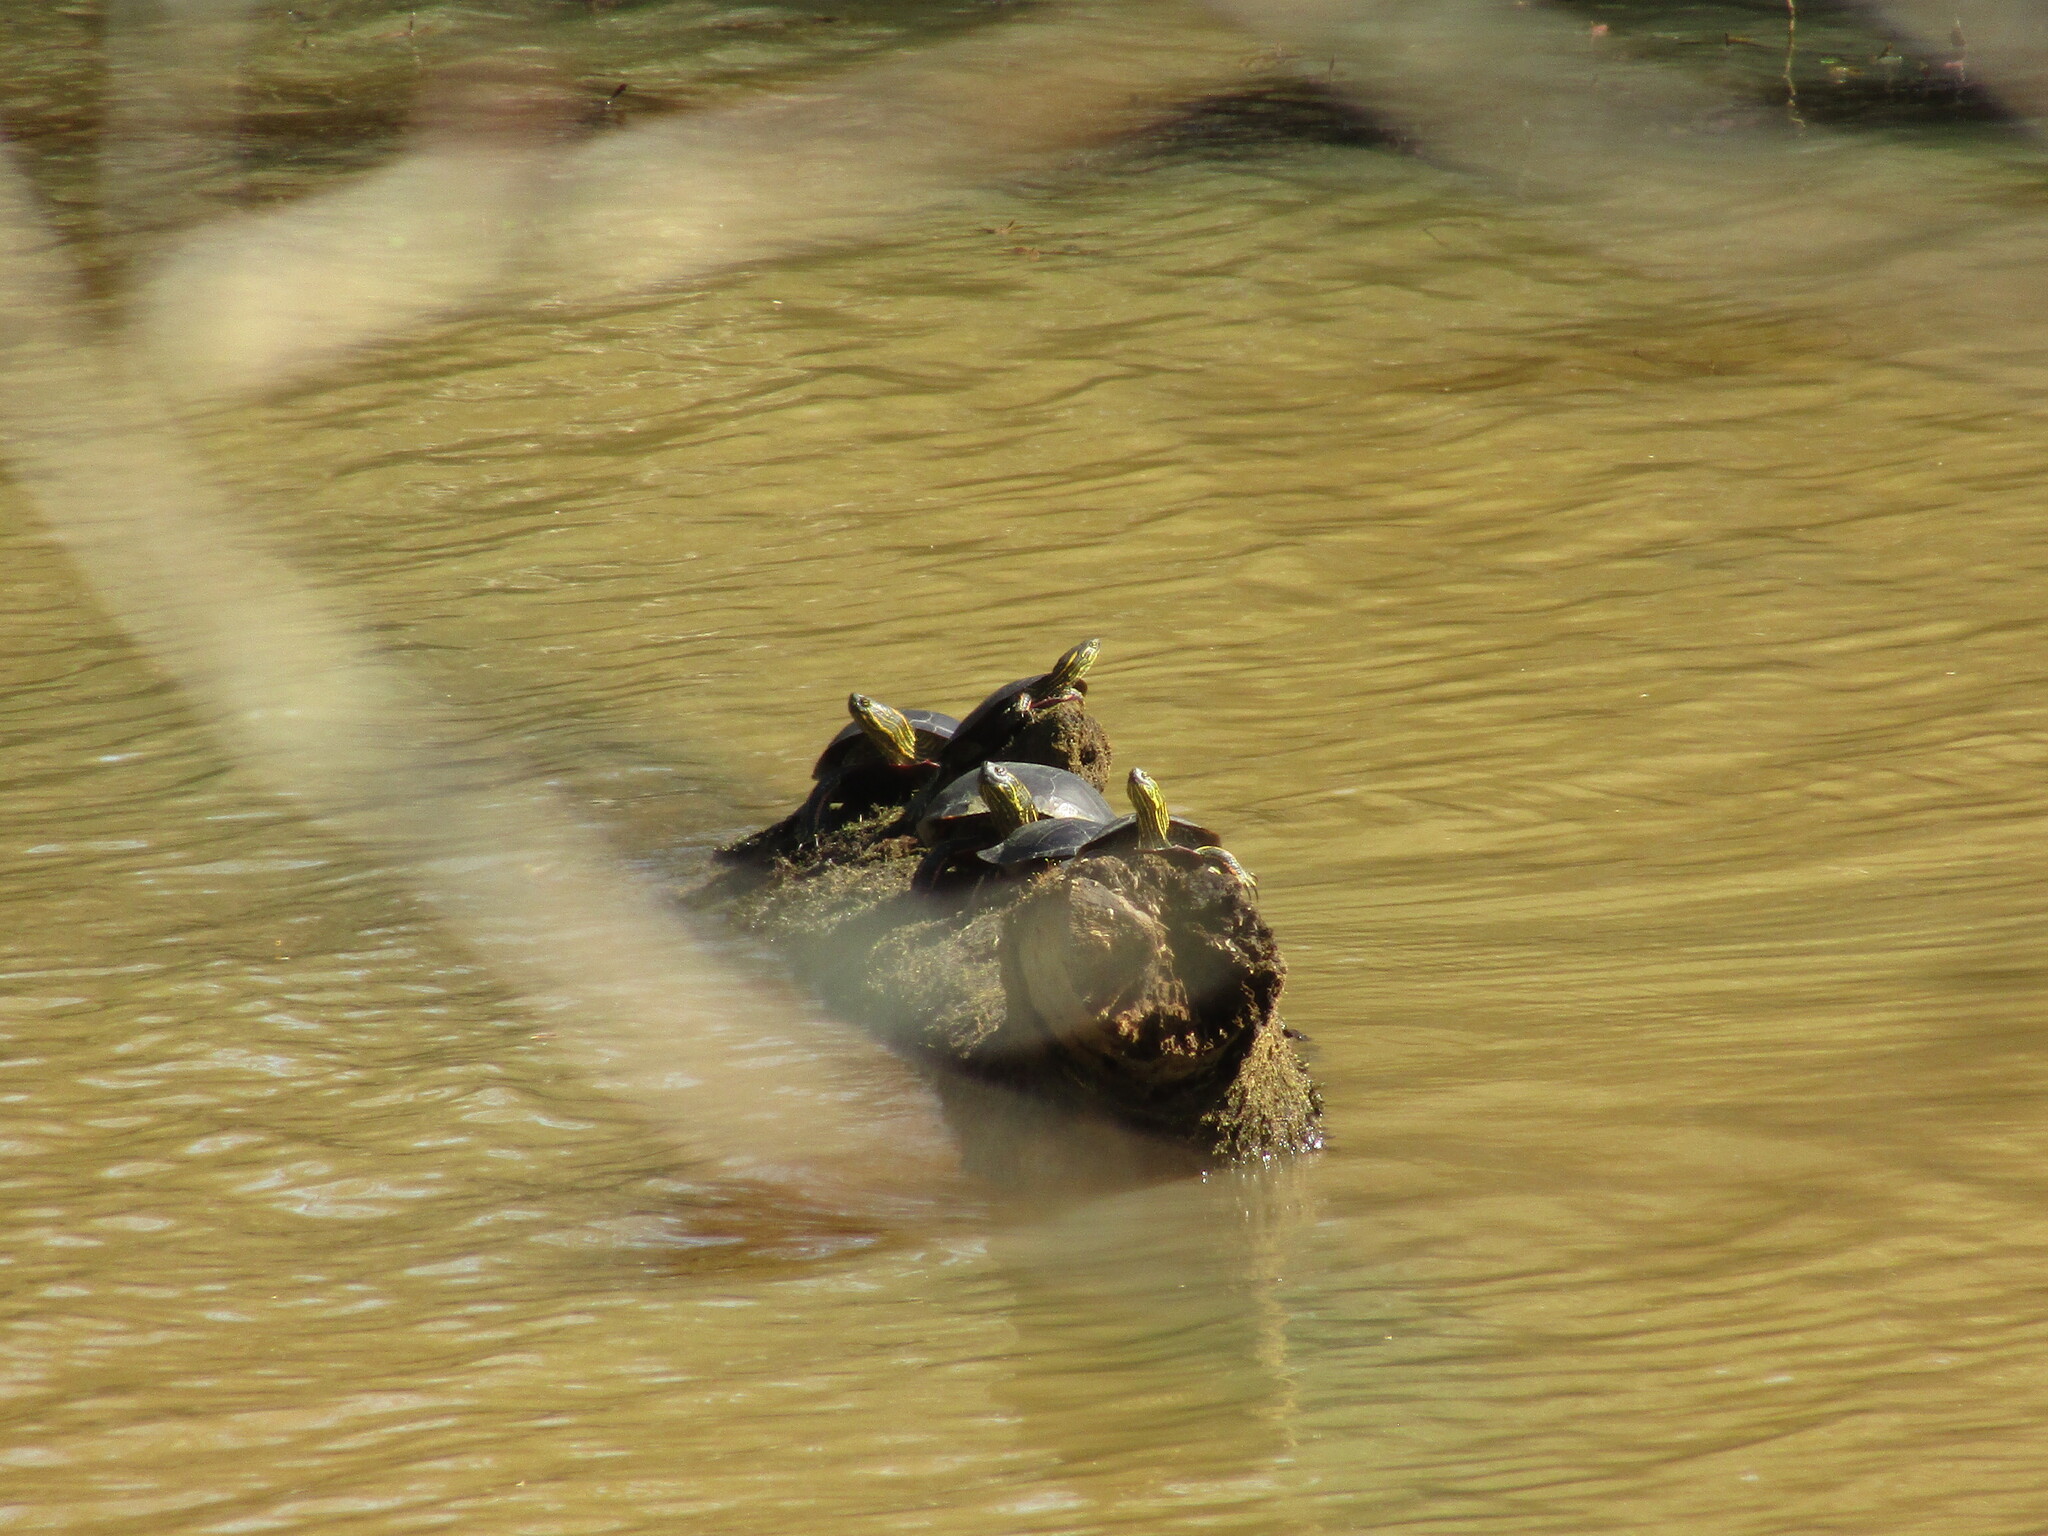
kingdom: Animalia
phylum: Chordata
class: Testudines
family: Emydidae
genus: Chrysemys
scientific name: Chrysemys picta
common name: Painted turtle
